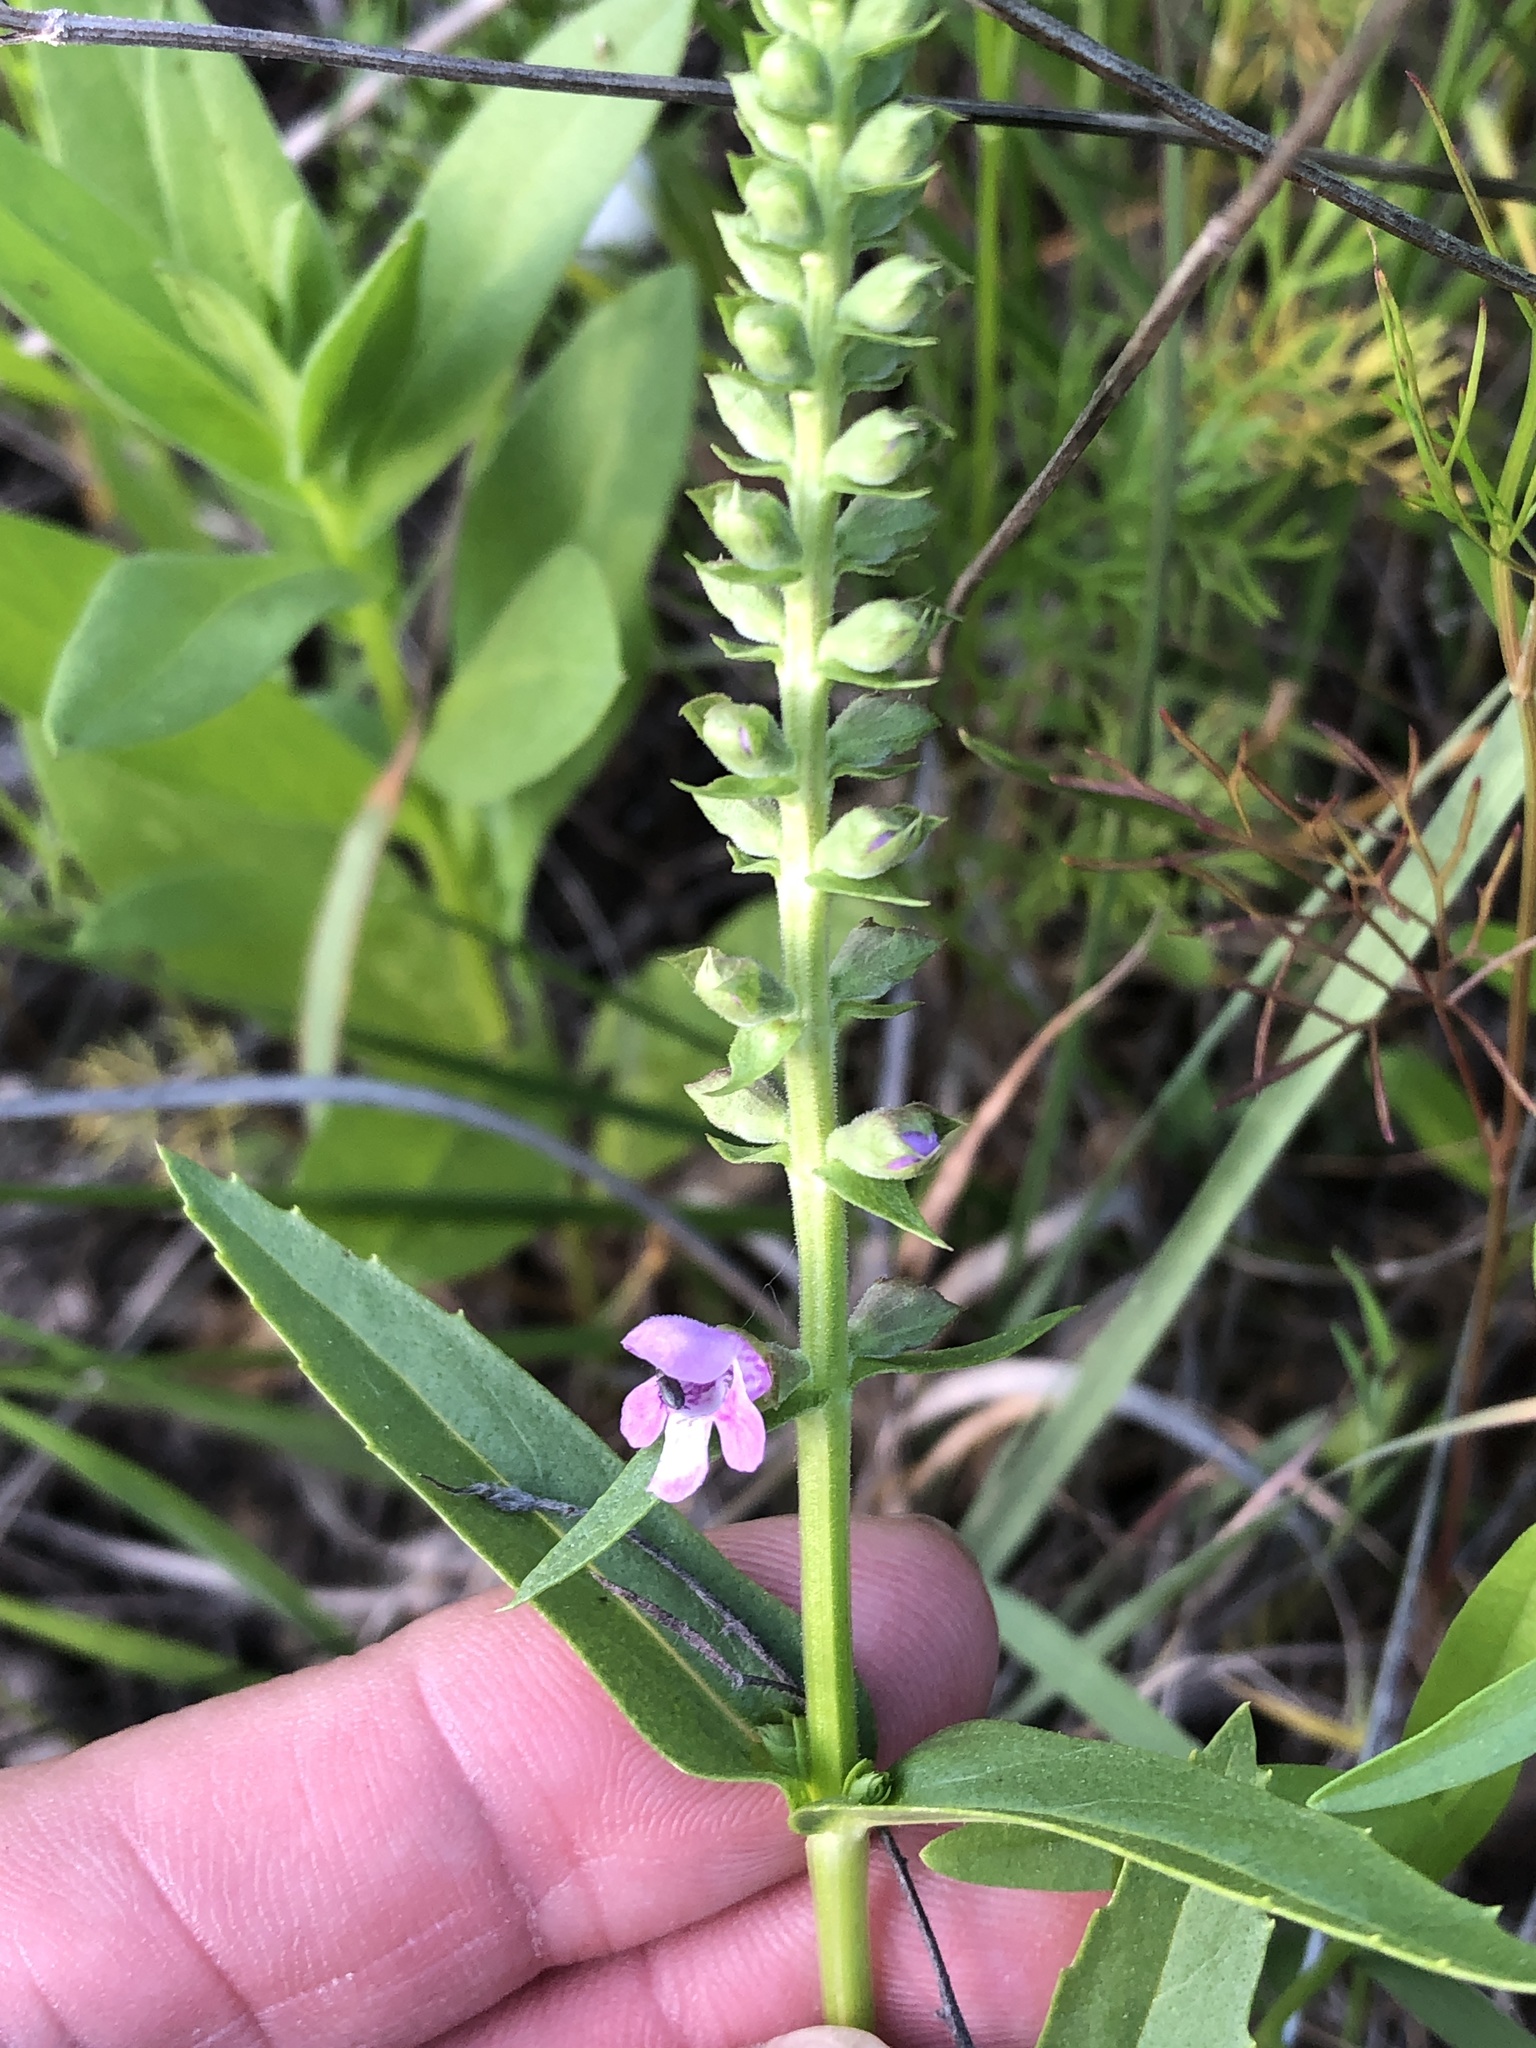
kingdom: Plantae
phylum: Tracheophyta
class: Magnoliopsida
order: Lamiales
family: Lamiaceae
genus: Warnockia
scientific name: Warnockia scutellarioides
